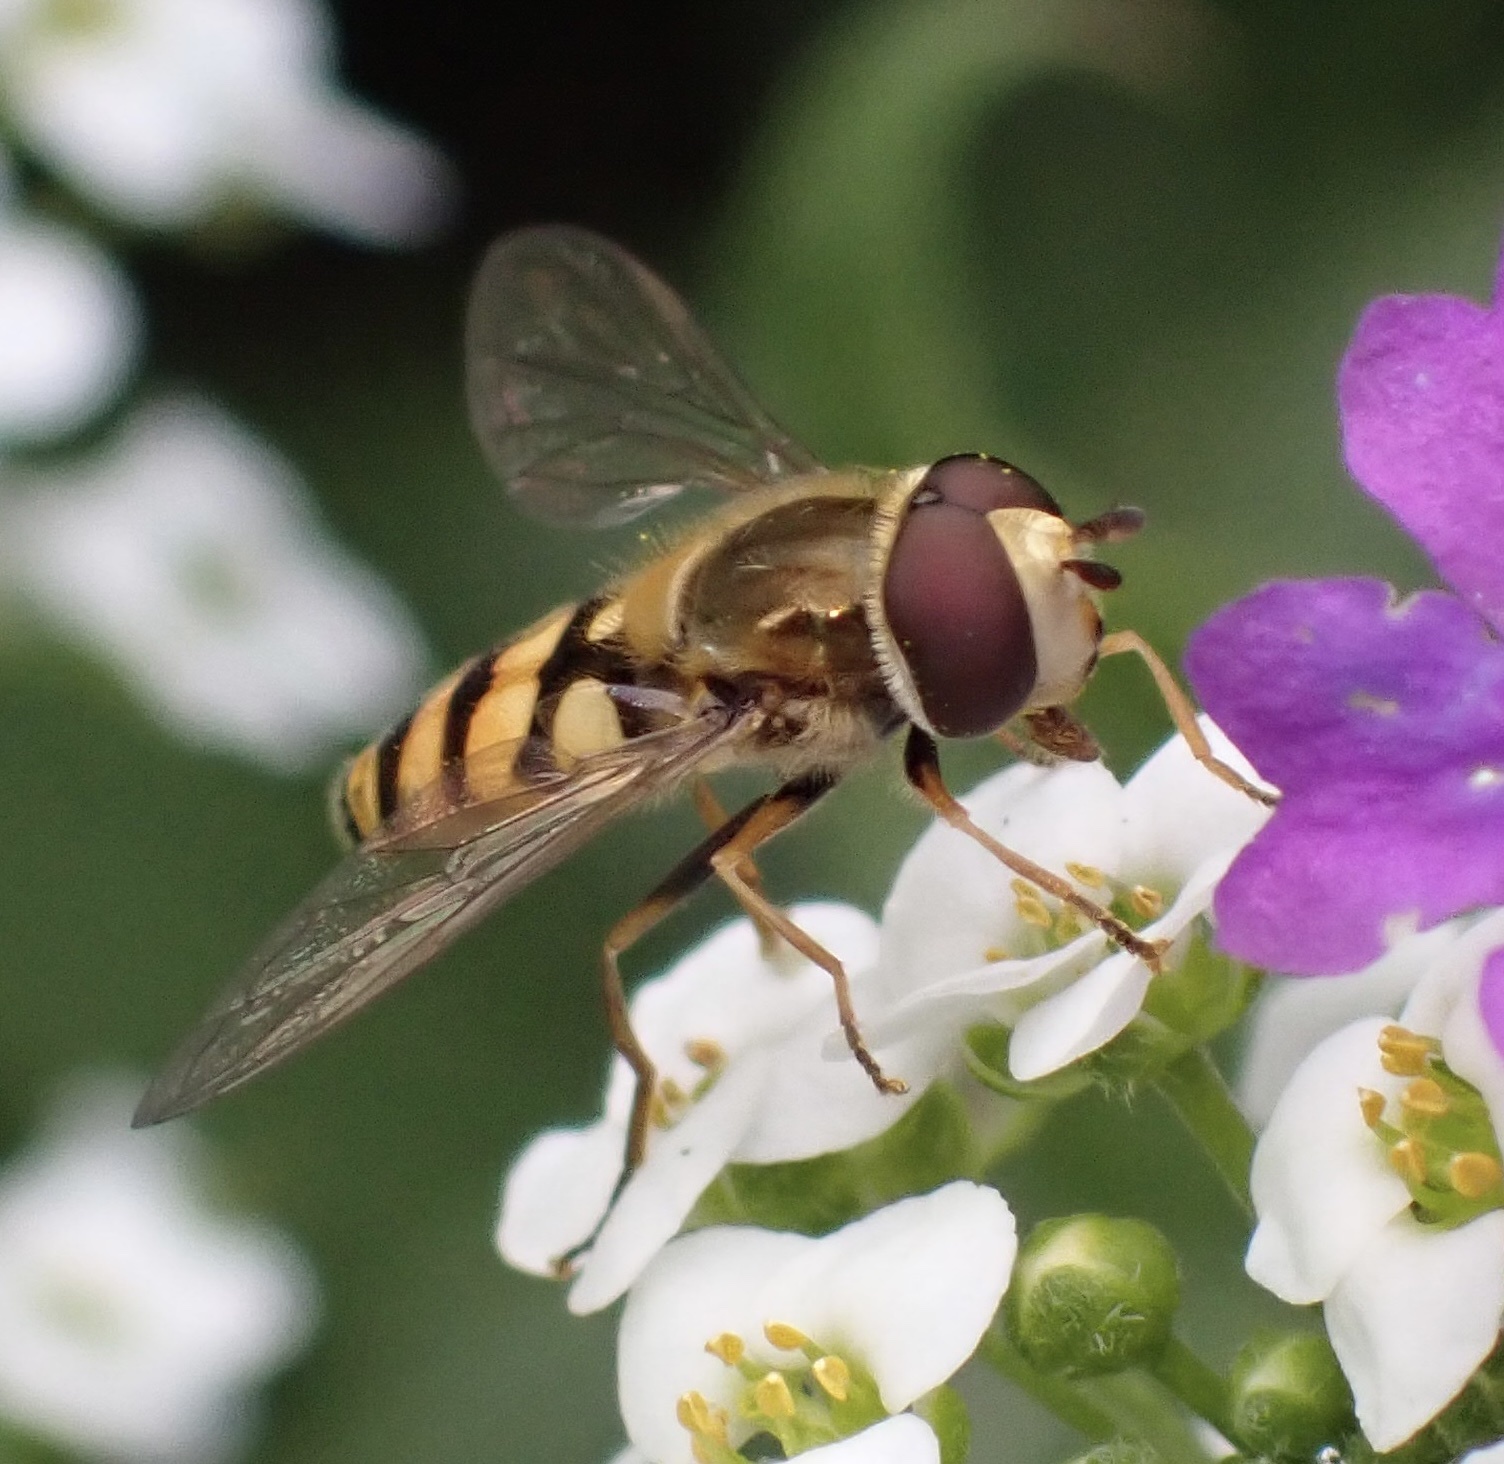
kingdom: Animalia
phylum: Arthropoda
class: Insecta
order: Diptera
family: Syrphidae
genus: Eupeodes
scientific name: Eupeodes corollae
